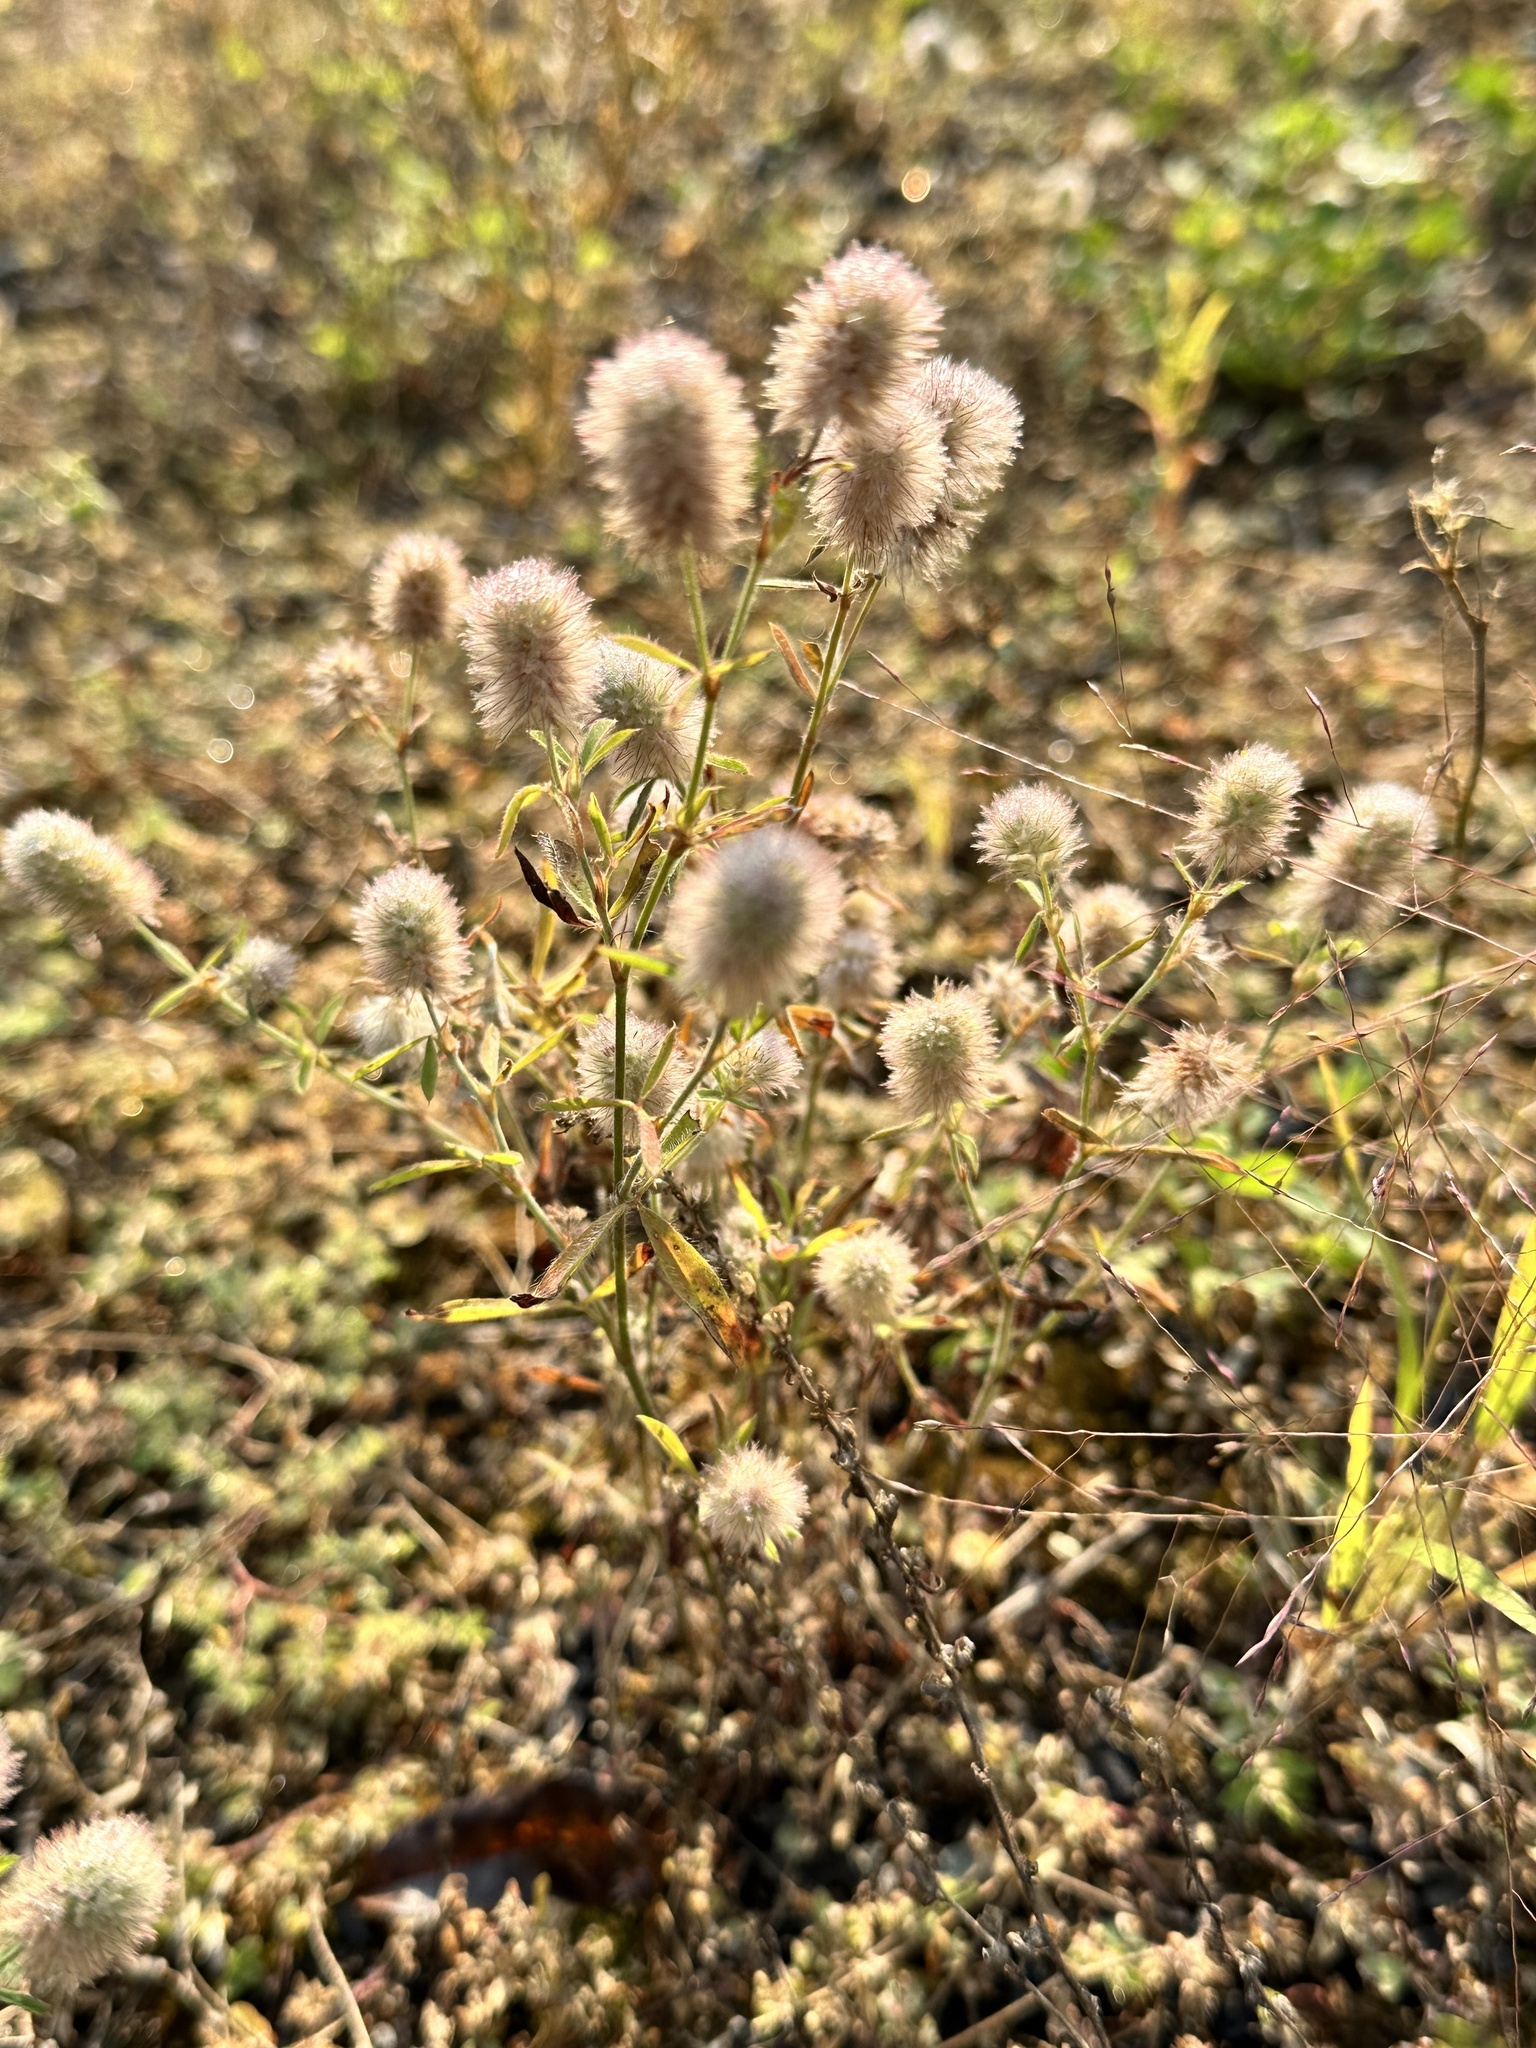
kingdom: Plantae
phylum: Tracheophyta
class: Magnoliopsida
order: Fabales
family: Fabaceae
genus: Trifolium
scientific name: Trifolium arvense
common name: Hare's-foot clover
